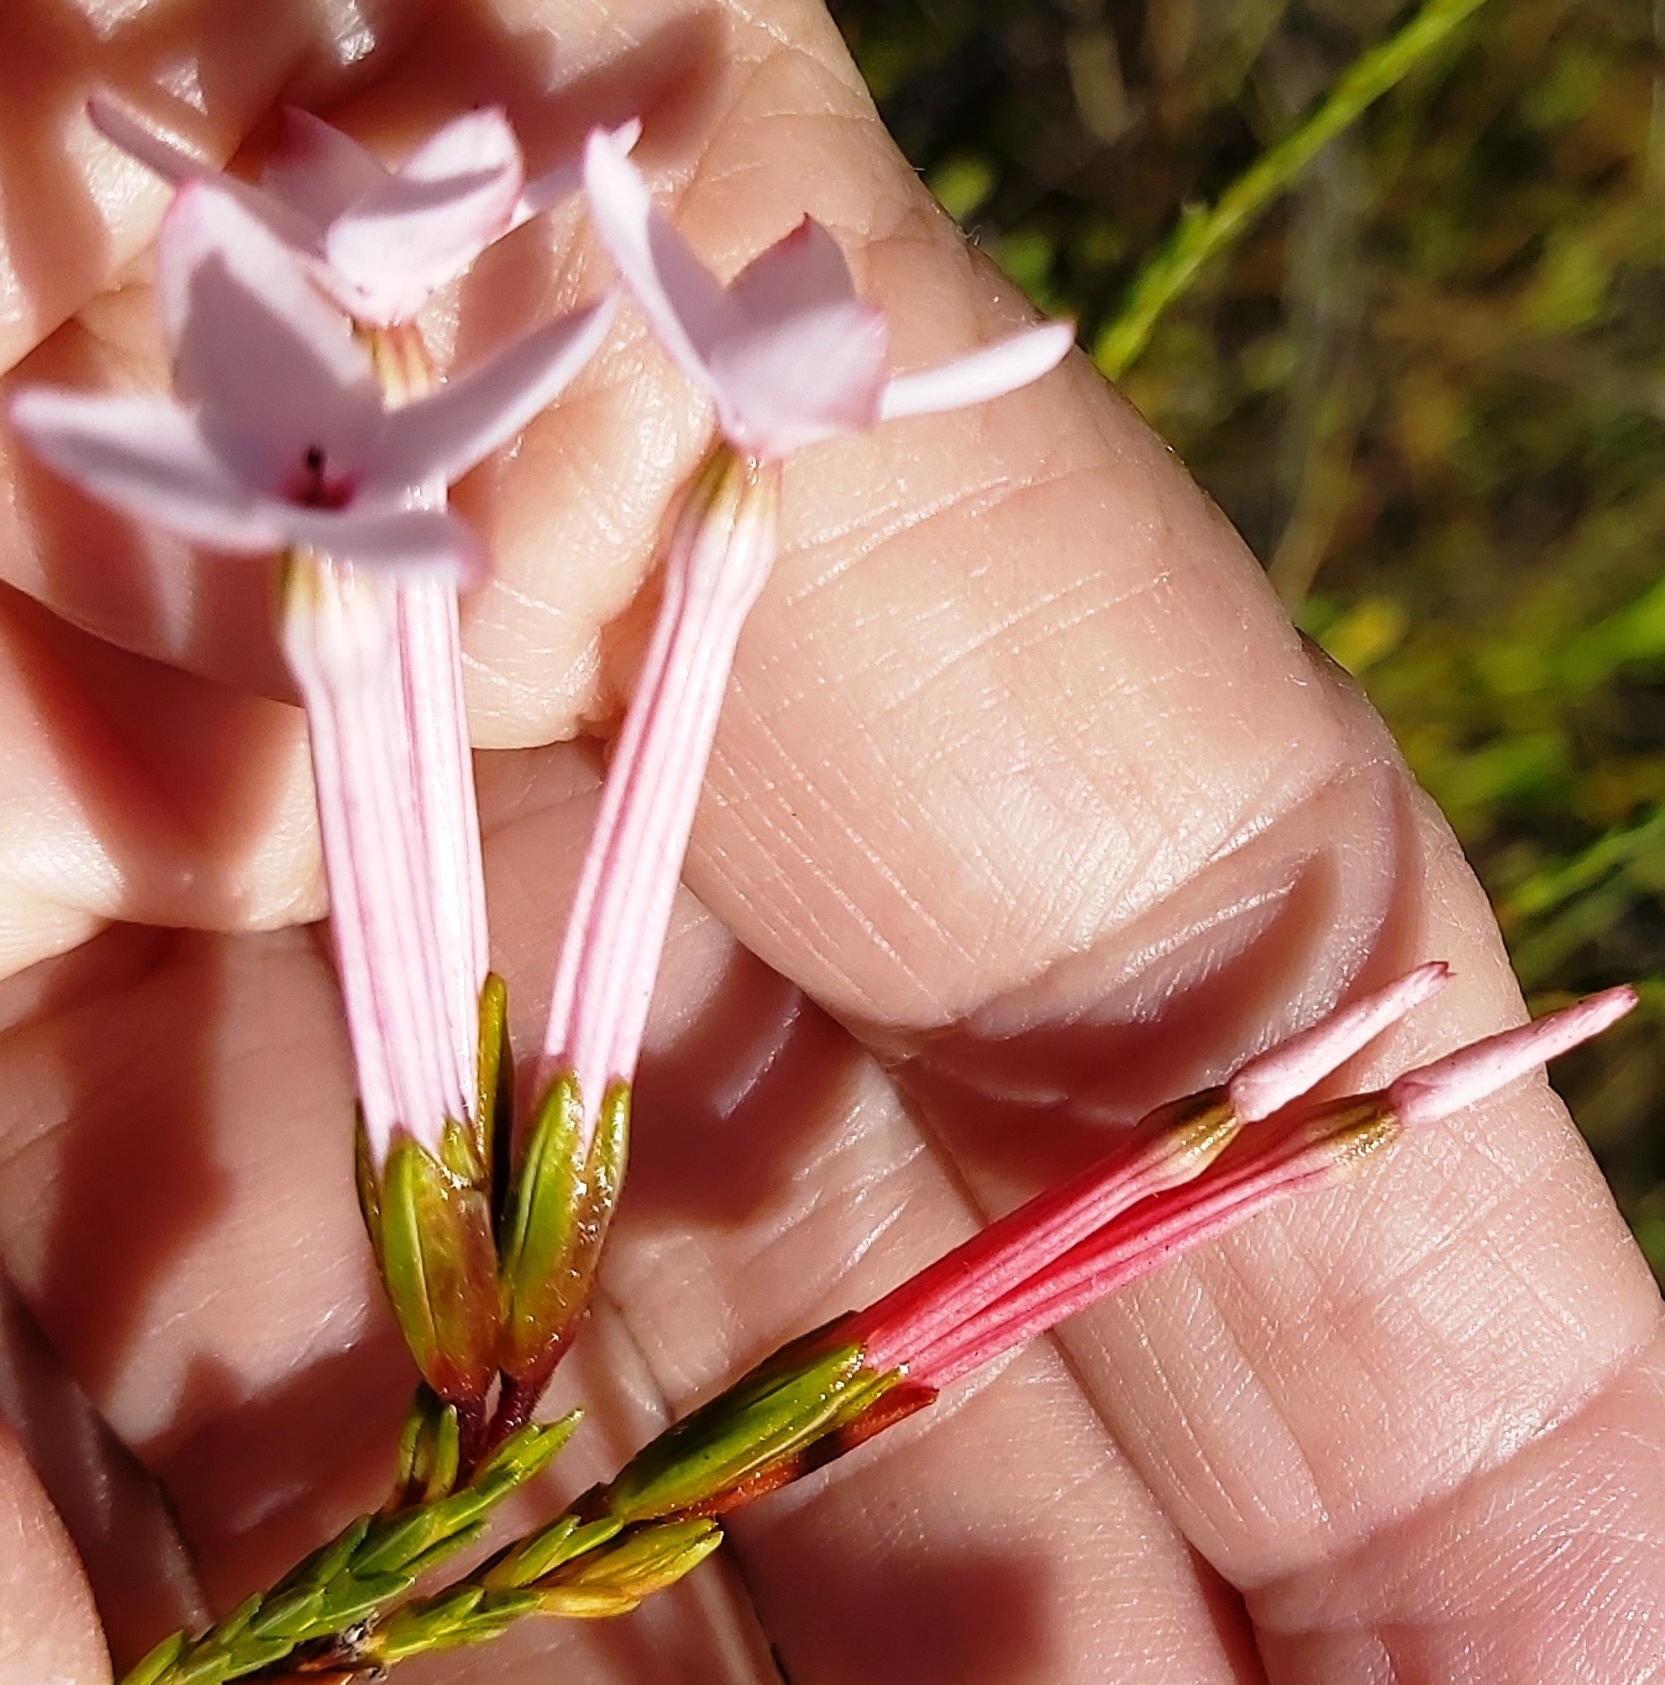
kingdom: Plantae
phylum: Tracheophyta
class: Magnoliopsida
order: Ericales
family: Ericaceae
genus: Erica
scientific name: Erica jasminiflora
